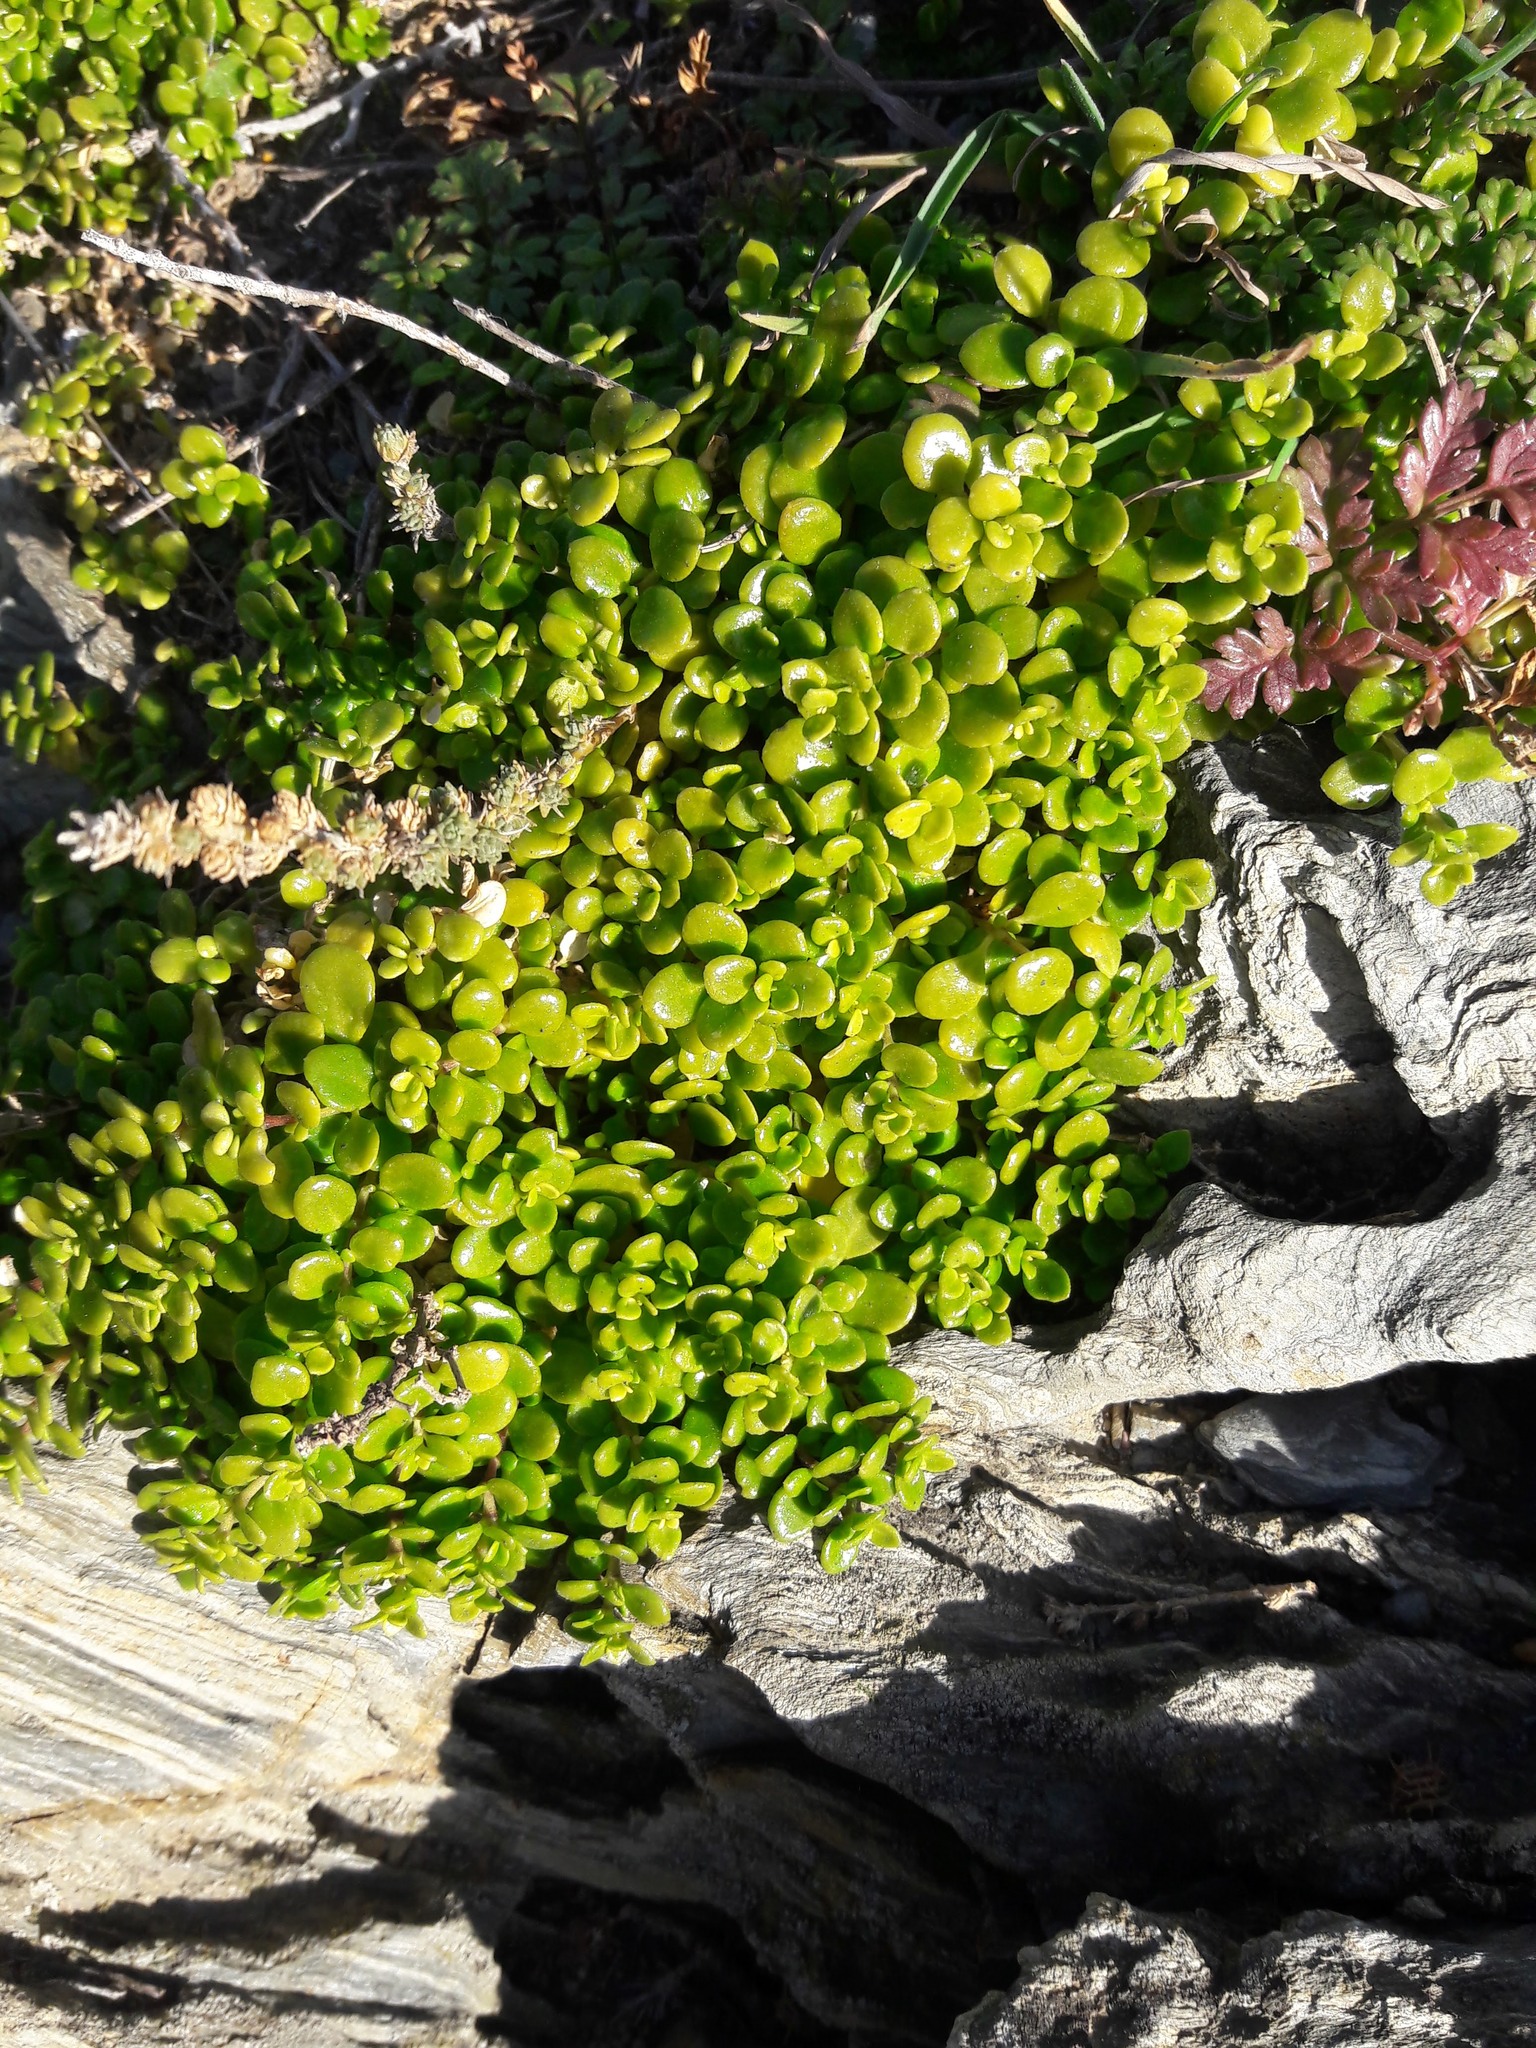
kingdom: Plantae
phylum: Tracheophyta
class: Magnoliopsida
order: Caryophyllales
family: Caryophyllaceae
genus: Polycarpon
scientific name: Polycarpon polycarpoides
